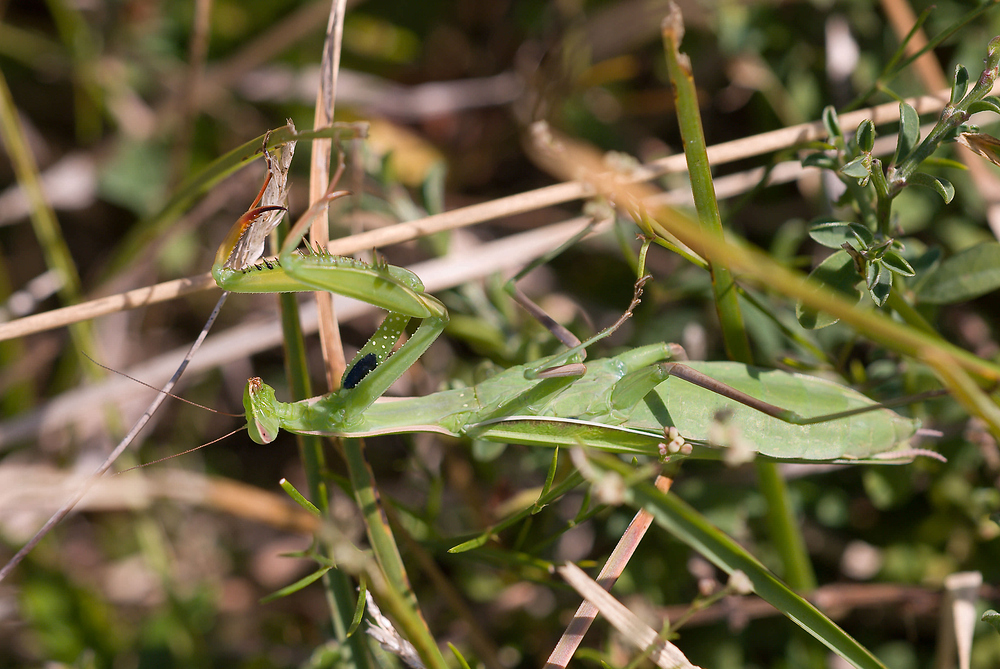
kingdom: Animalia
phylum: Arthropoda
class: Insecta
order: Mantodea
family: Mantidae
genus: Mantis
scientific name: Mantis religiosa
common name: Praying mantis
